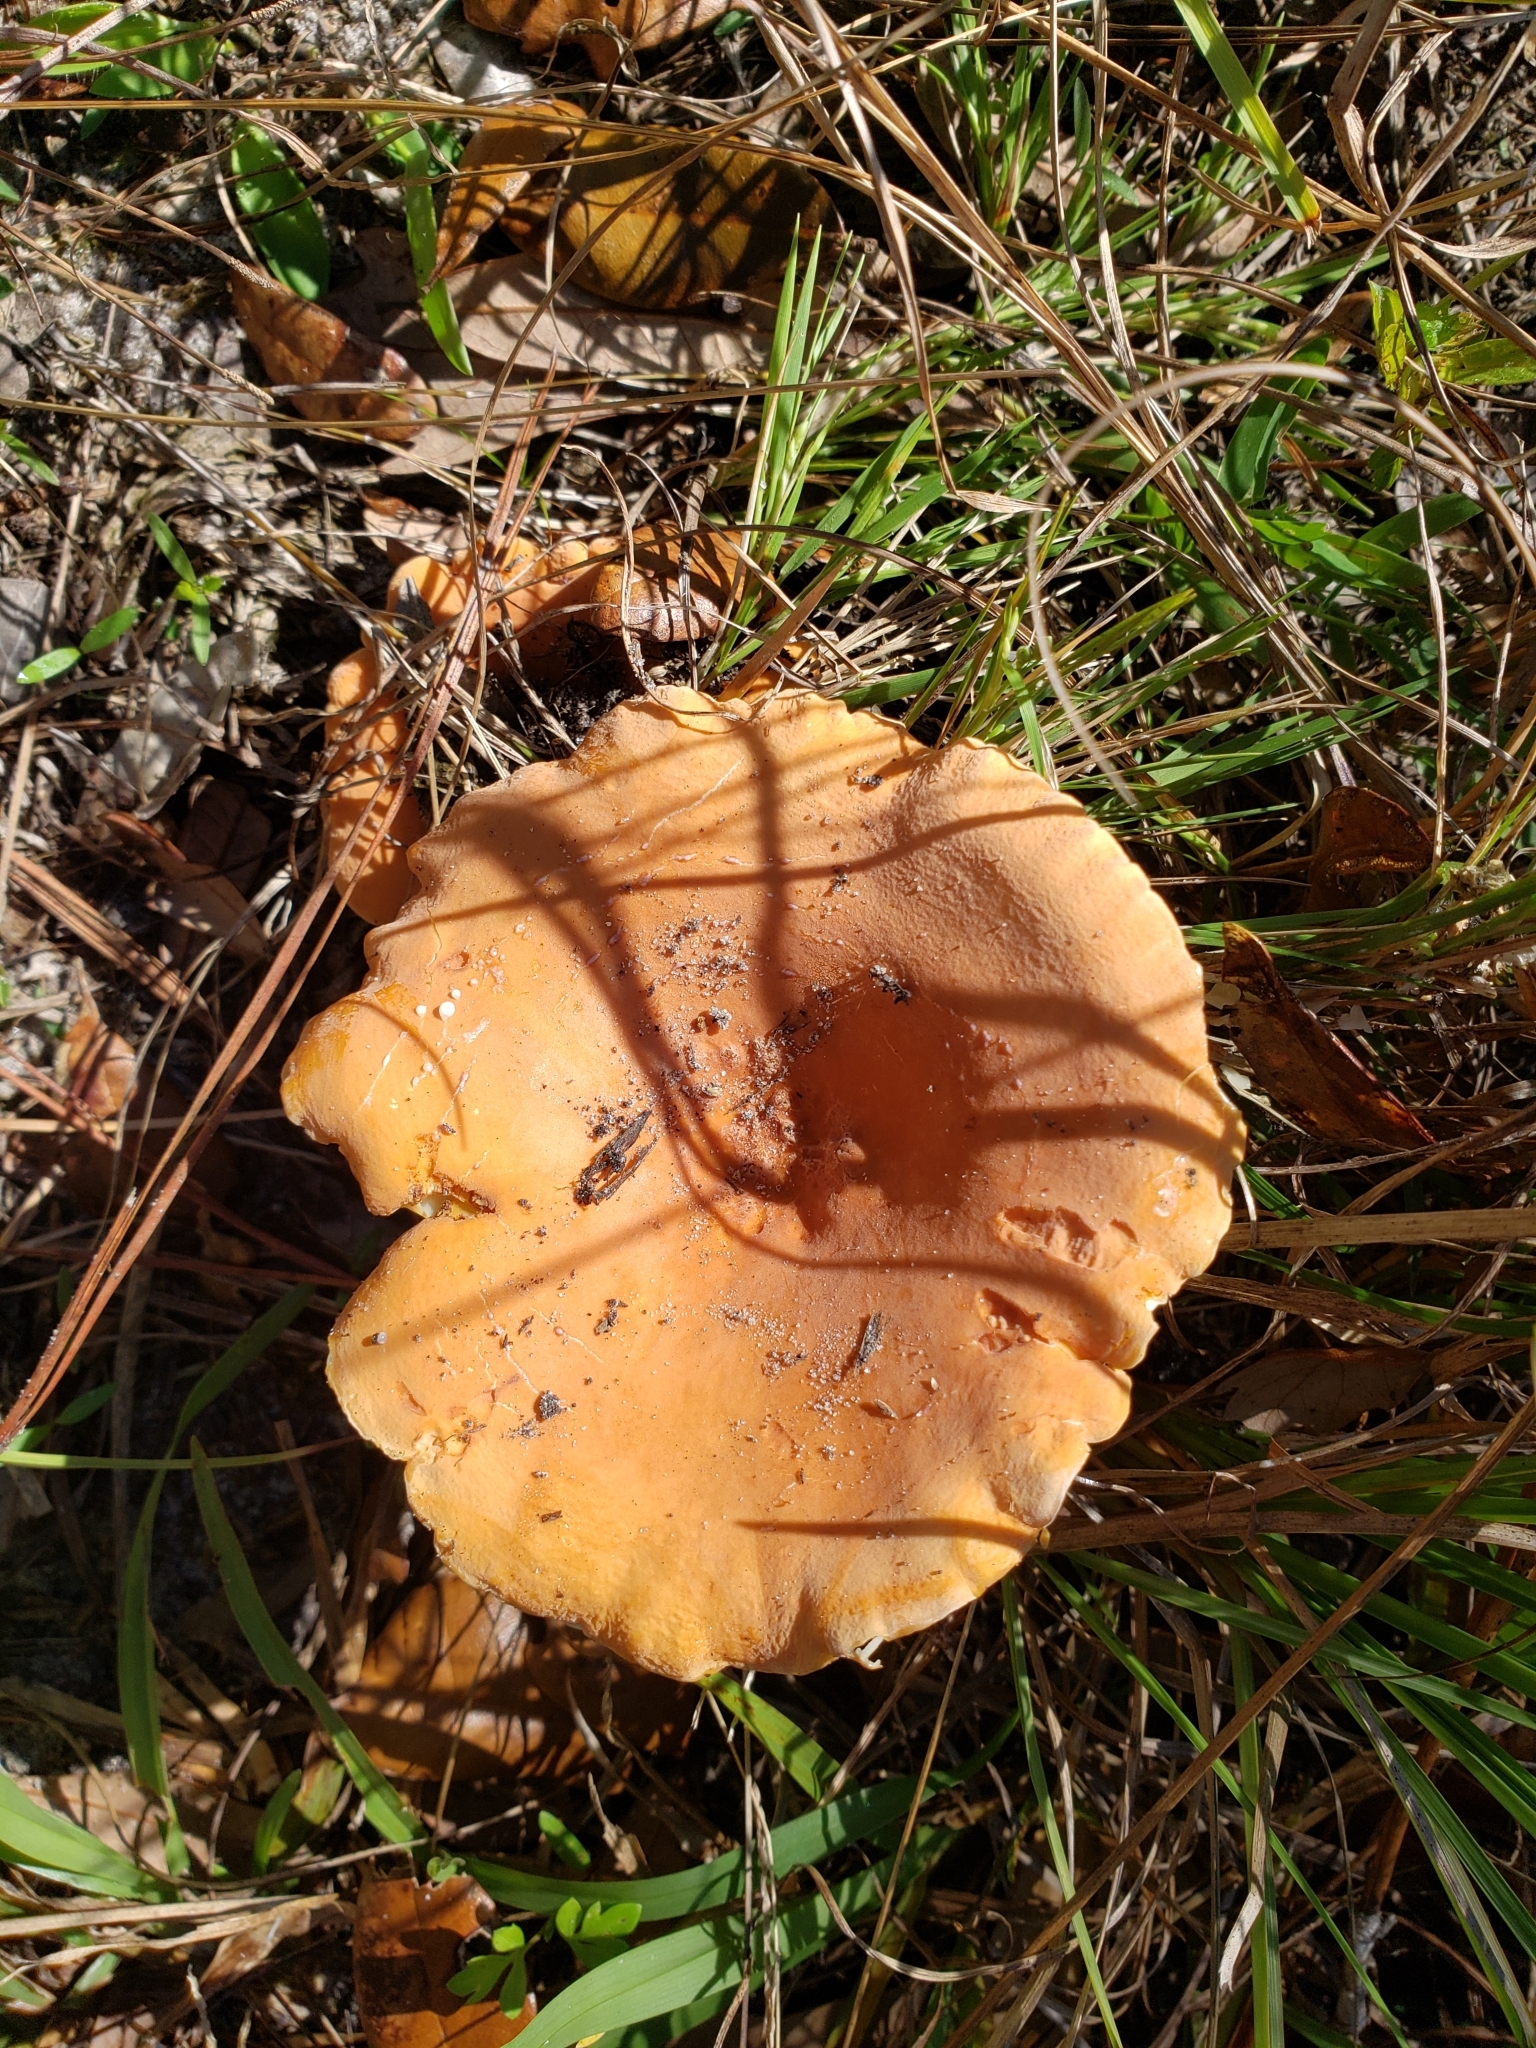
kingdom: Fungi
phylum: Basidiomycota
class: Agaricomycetes
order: Russulales
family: Russulaceae
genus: Lactarius
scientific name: Lactarius hygrophoroides
